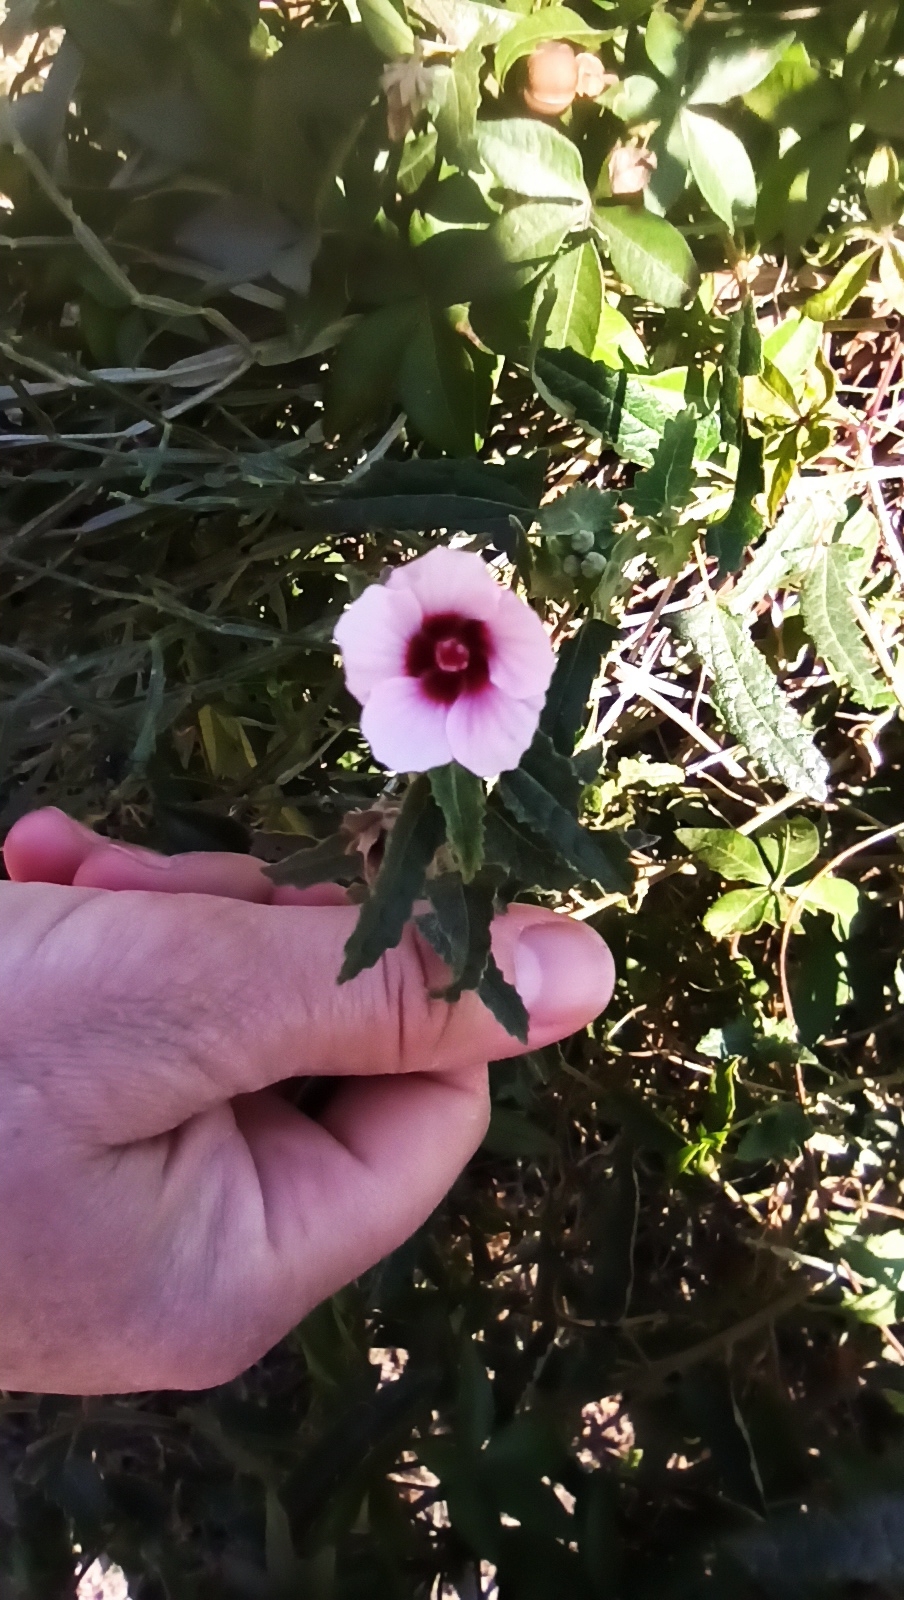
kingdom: Plantae
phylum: Tracheophyta
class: Magnoliopsida
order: Malvales
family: Malvaceae
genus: Pavonia
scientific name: Pavonia hastata
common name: Spearleaf swampmallow
